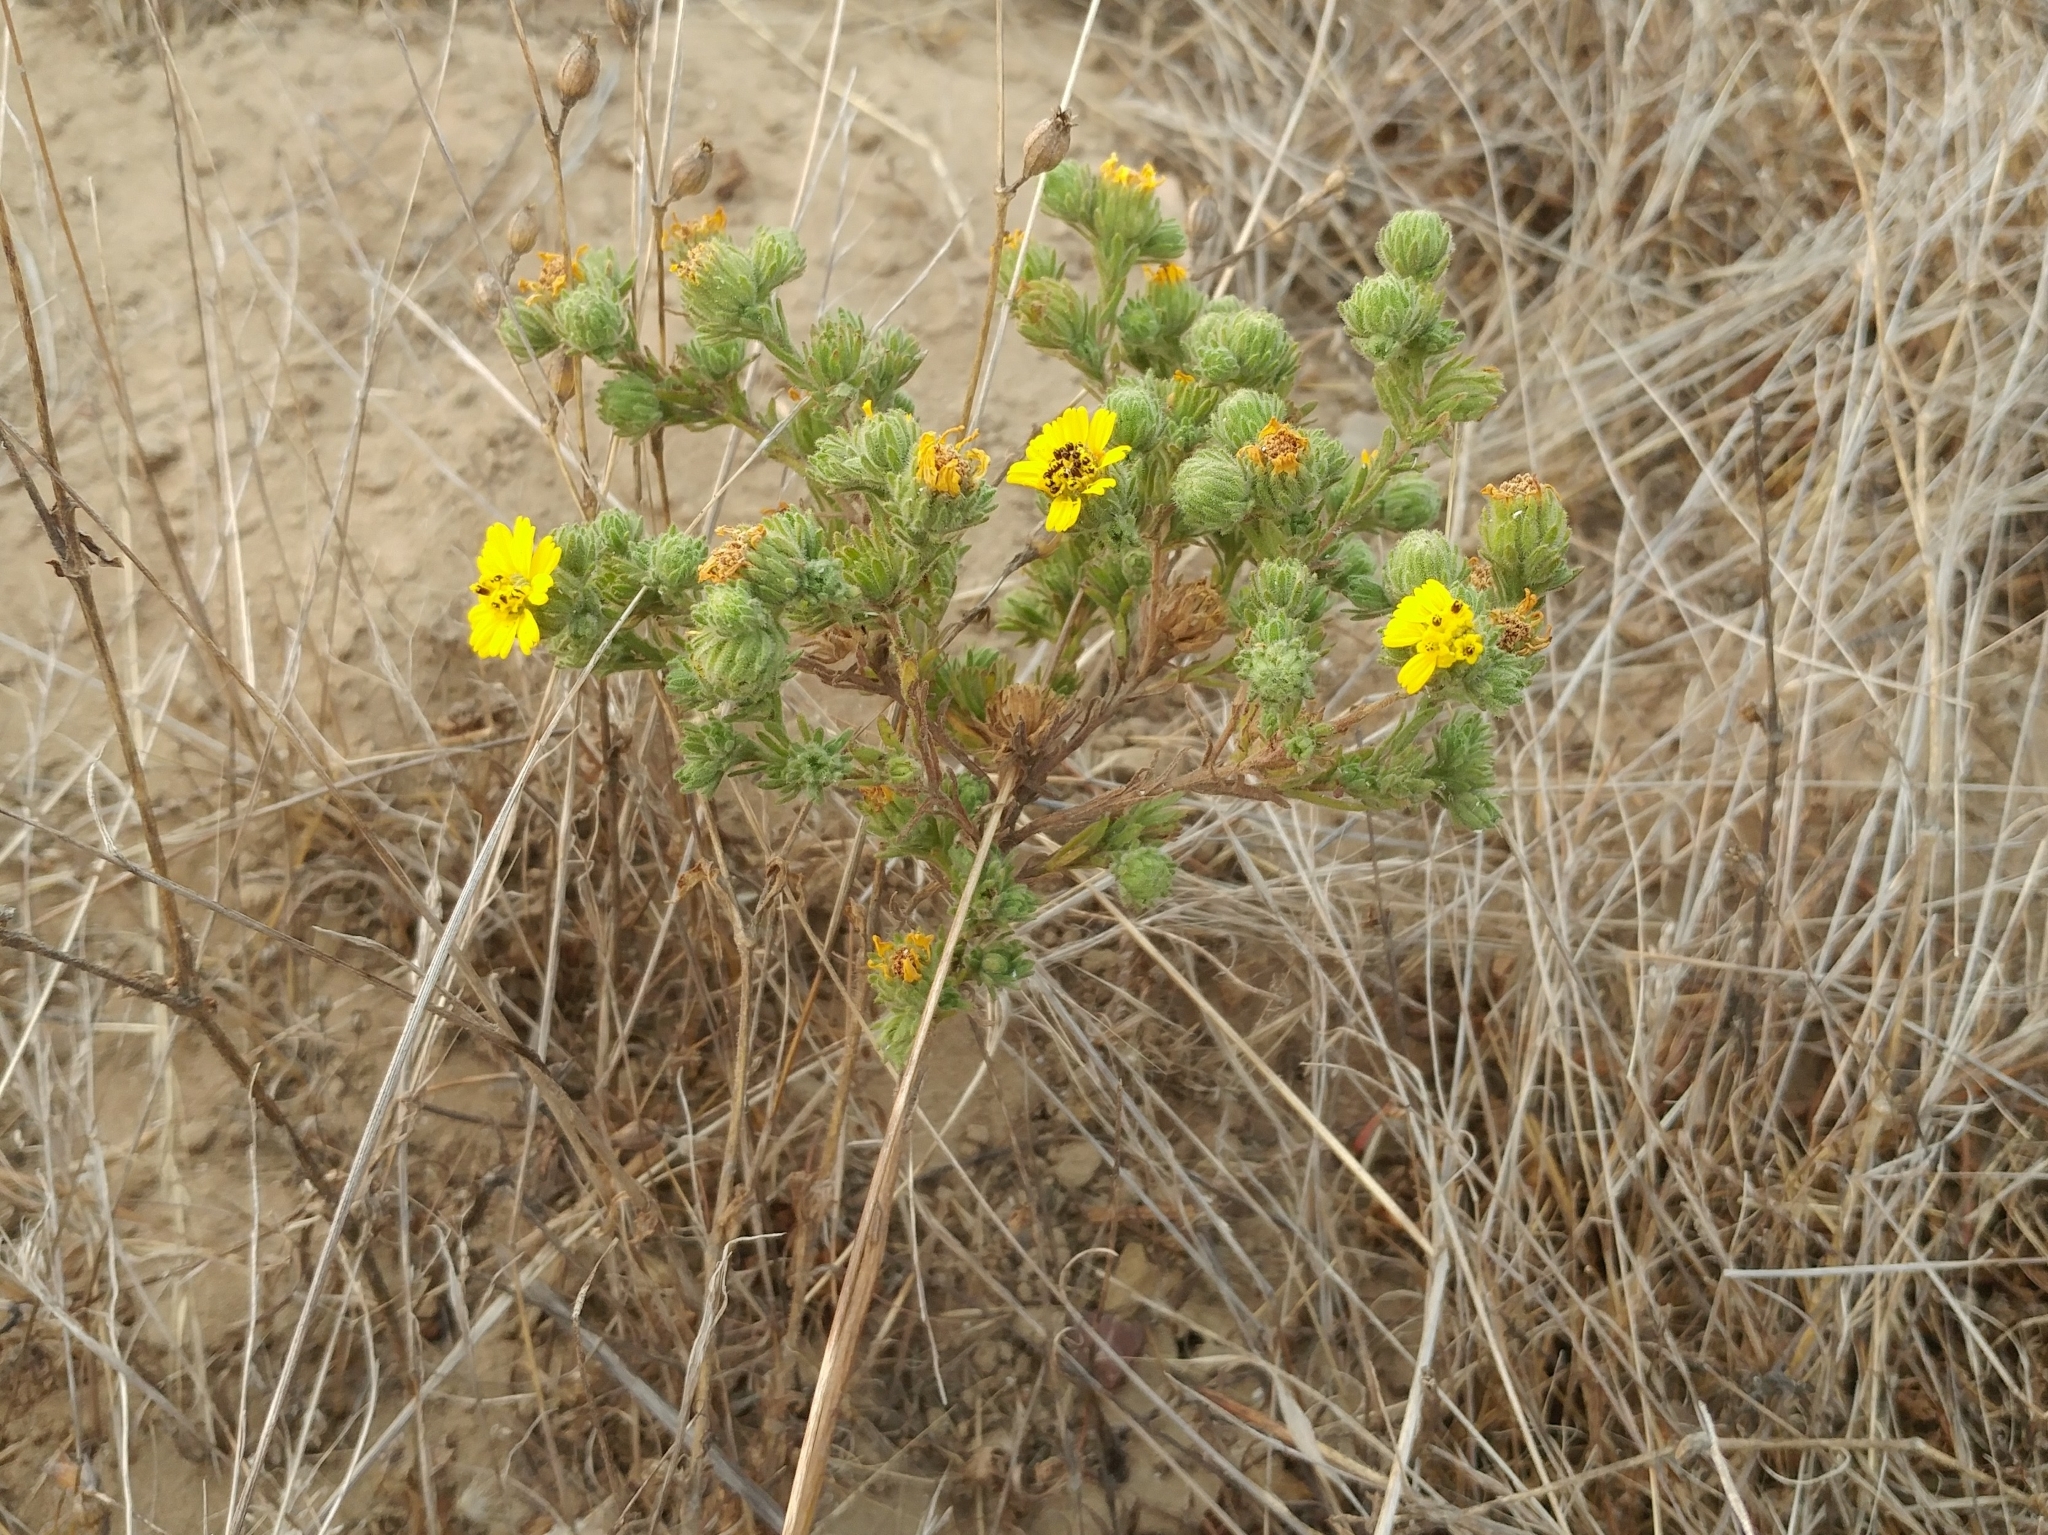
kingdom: Plantae
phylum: Tracheophyta
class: Magnoliopsida
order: Asterales
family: Asteraceae
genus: Deinandra
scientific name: Deinandra increscens
